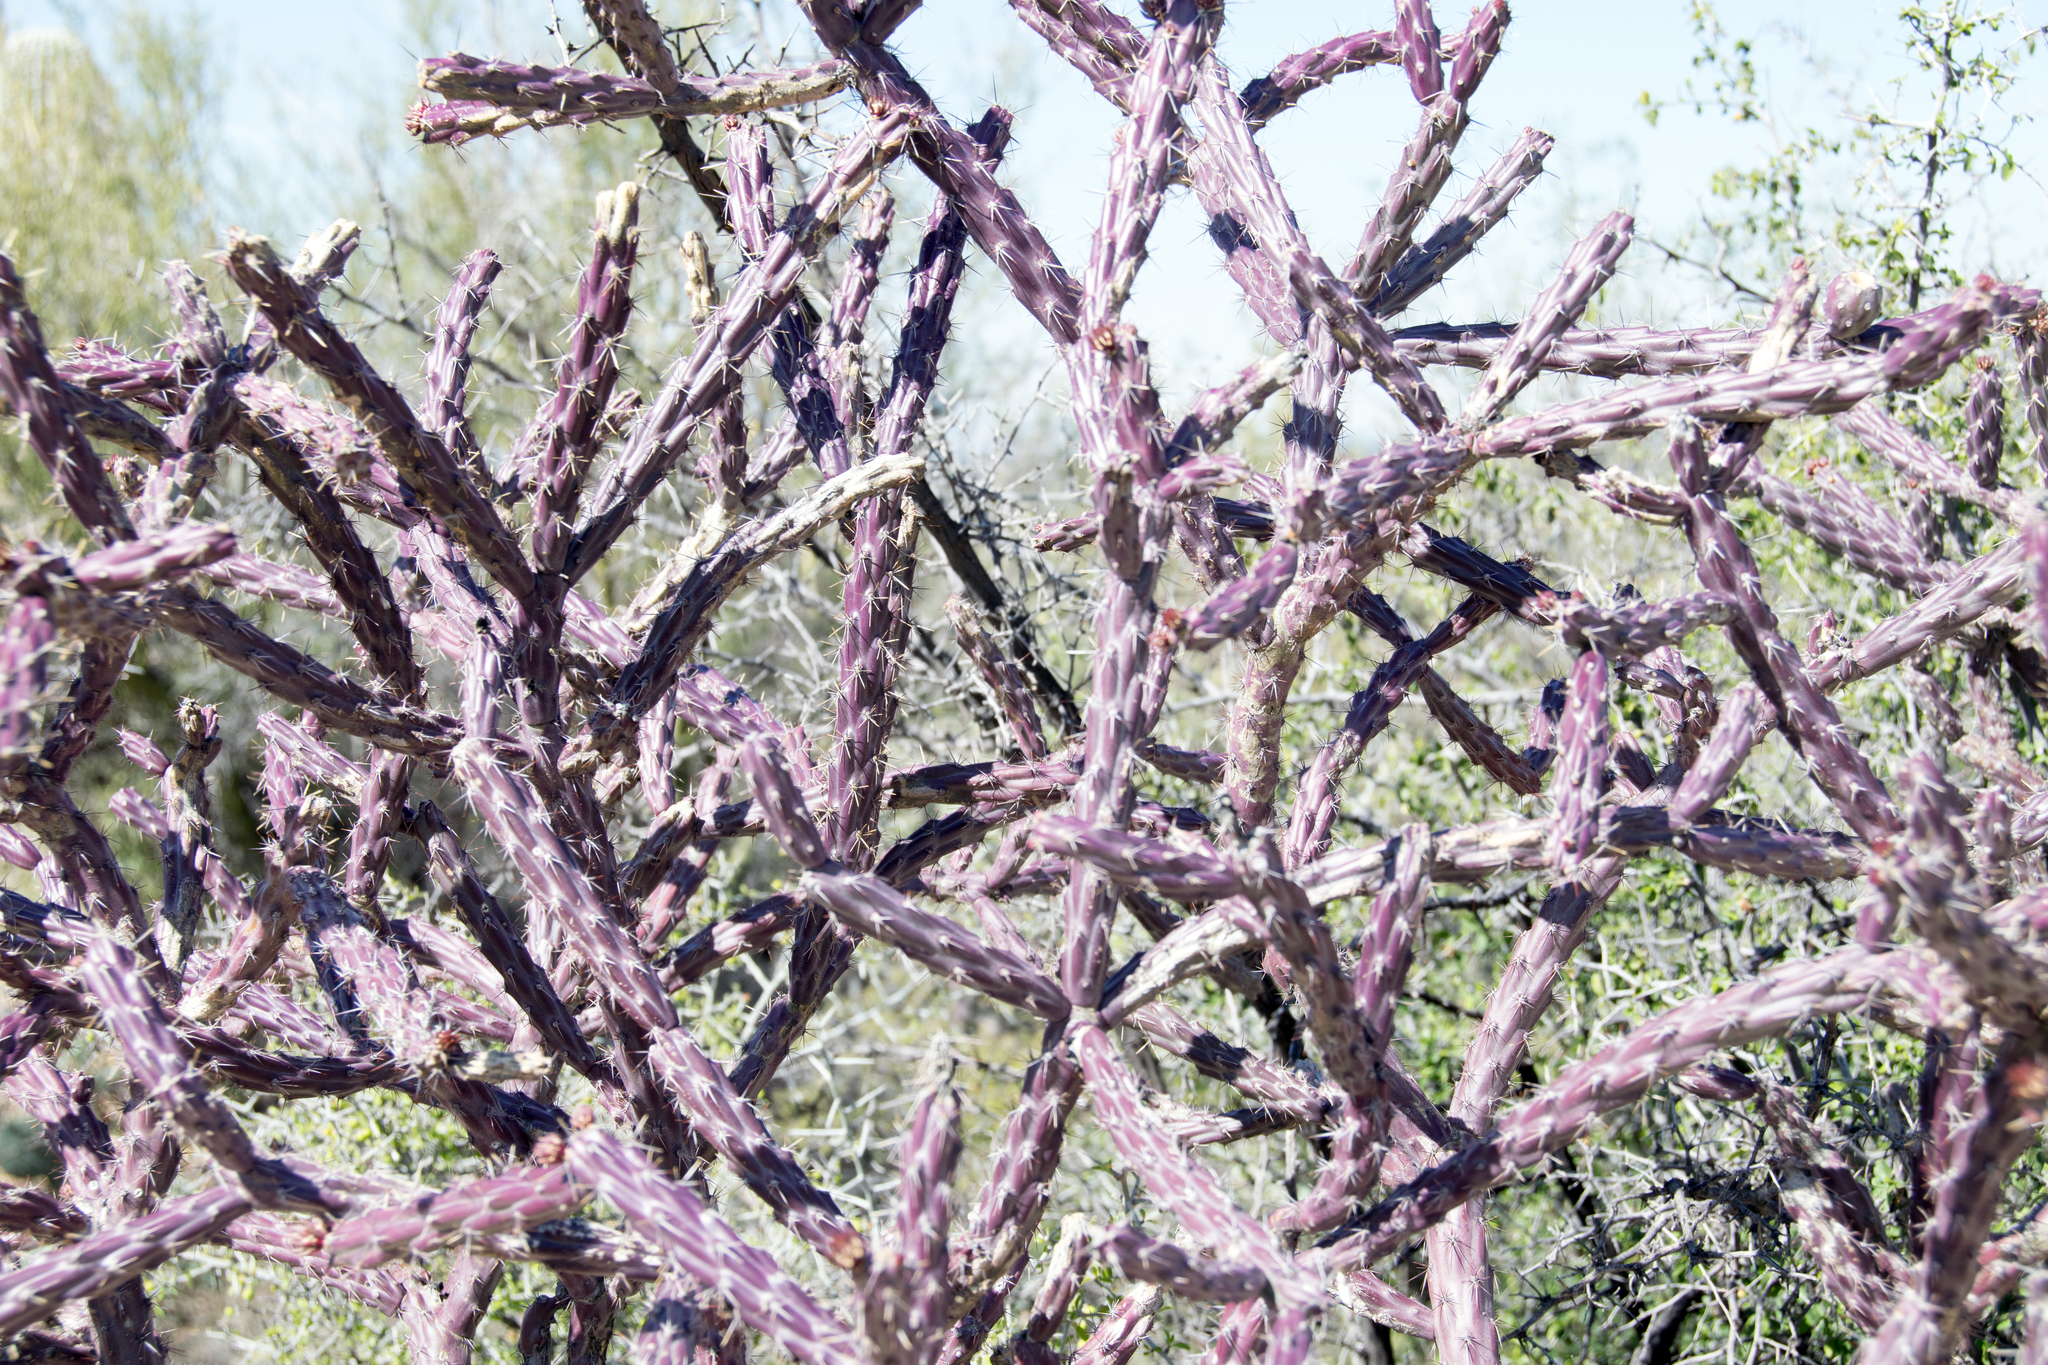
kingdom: Plantae
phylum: Tracheophyta
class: Magnoliopsida
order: Caryophyllales
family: Cactaceae
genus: Cylindropuntia
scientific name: Cylindropuntia thurberi
